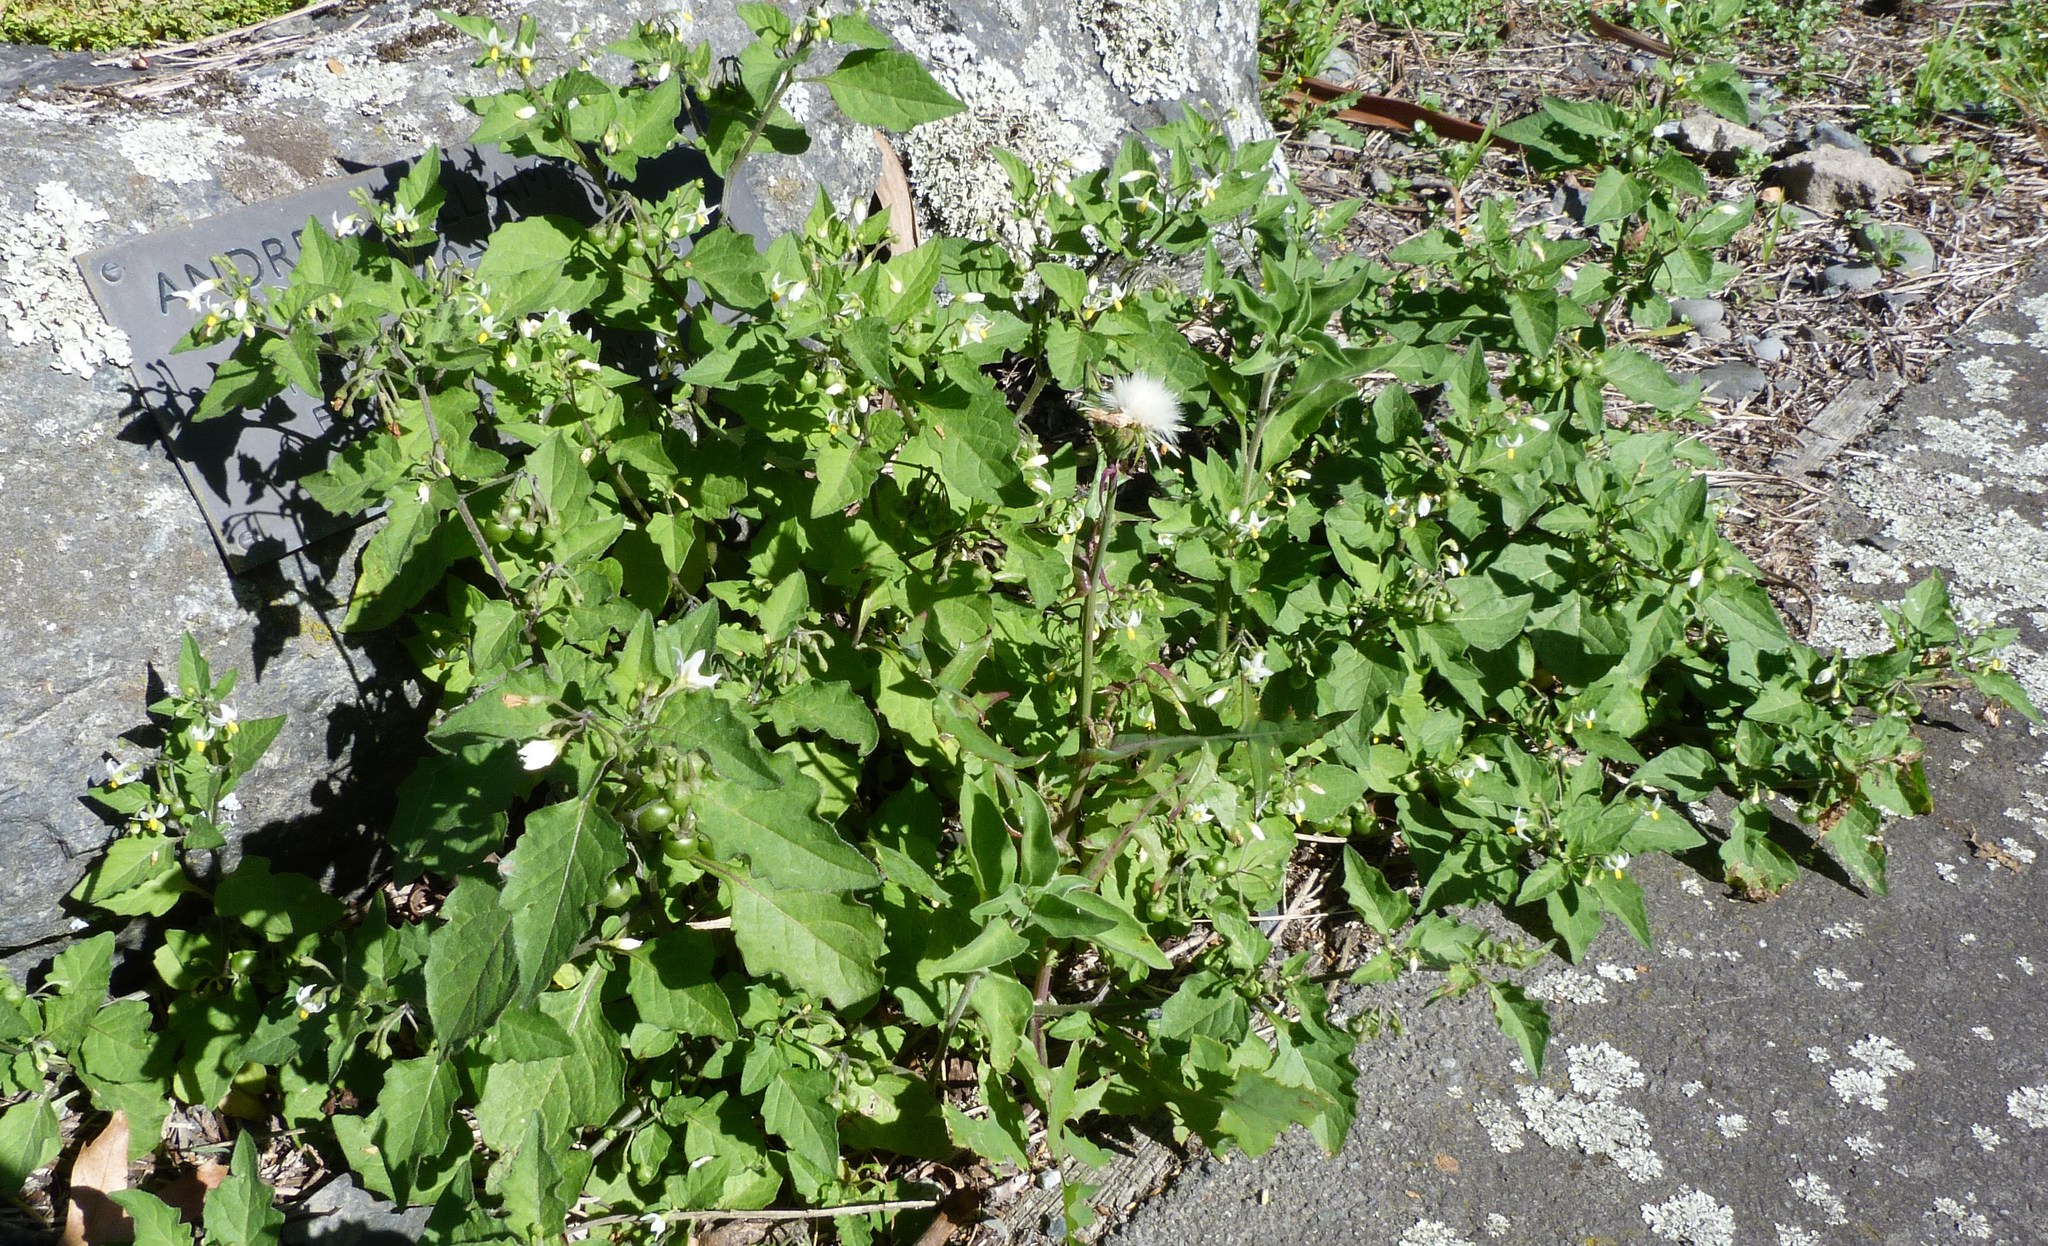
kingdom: Plantae
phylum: Tracheophyta
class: Magnoliopsida
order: Solanales
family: Solanaceae
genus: Solanum
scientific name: Solanum nigrum
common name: Black nightshade
